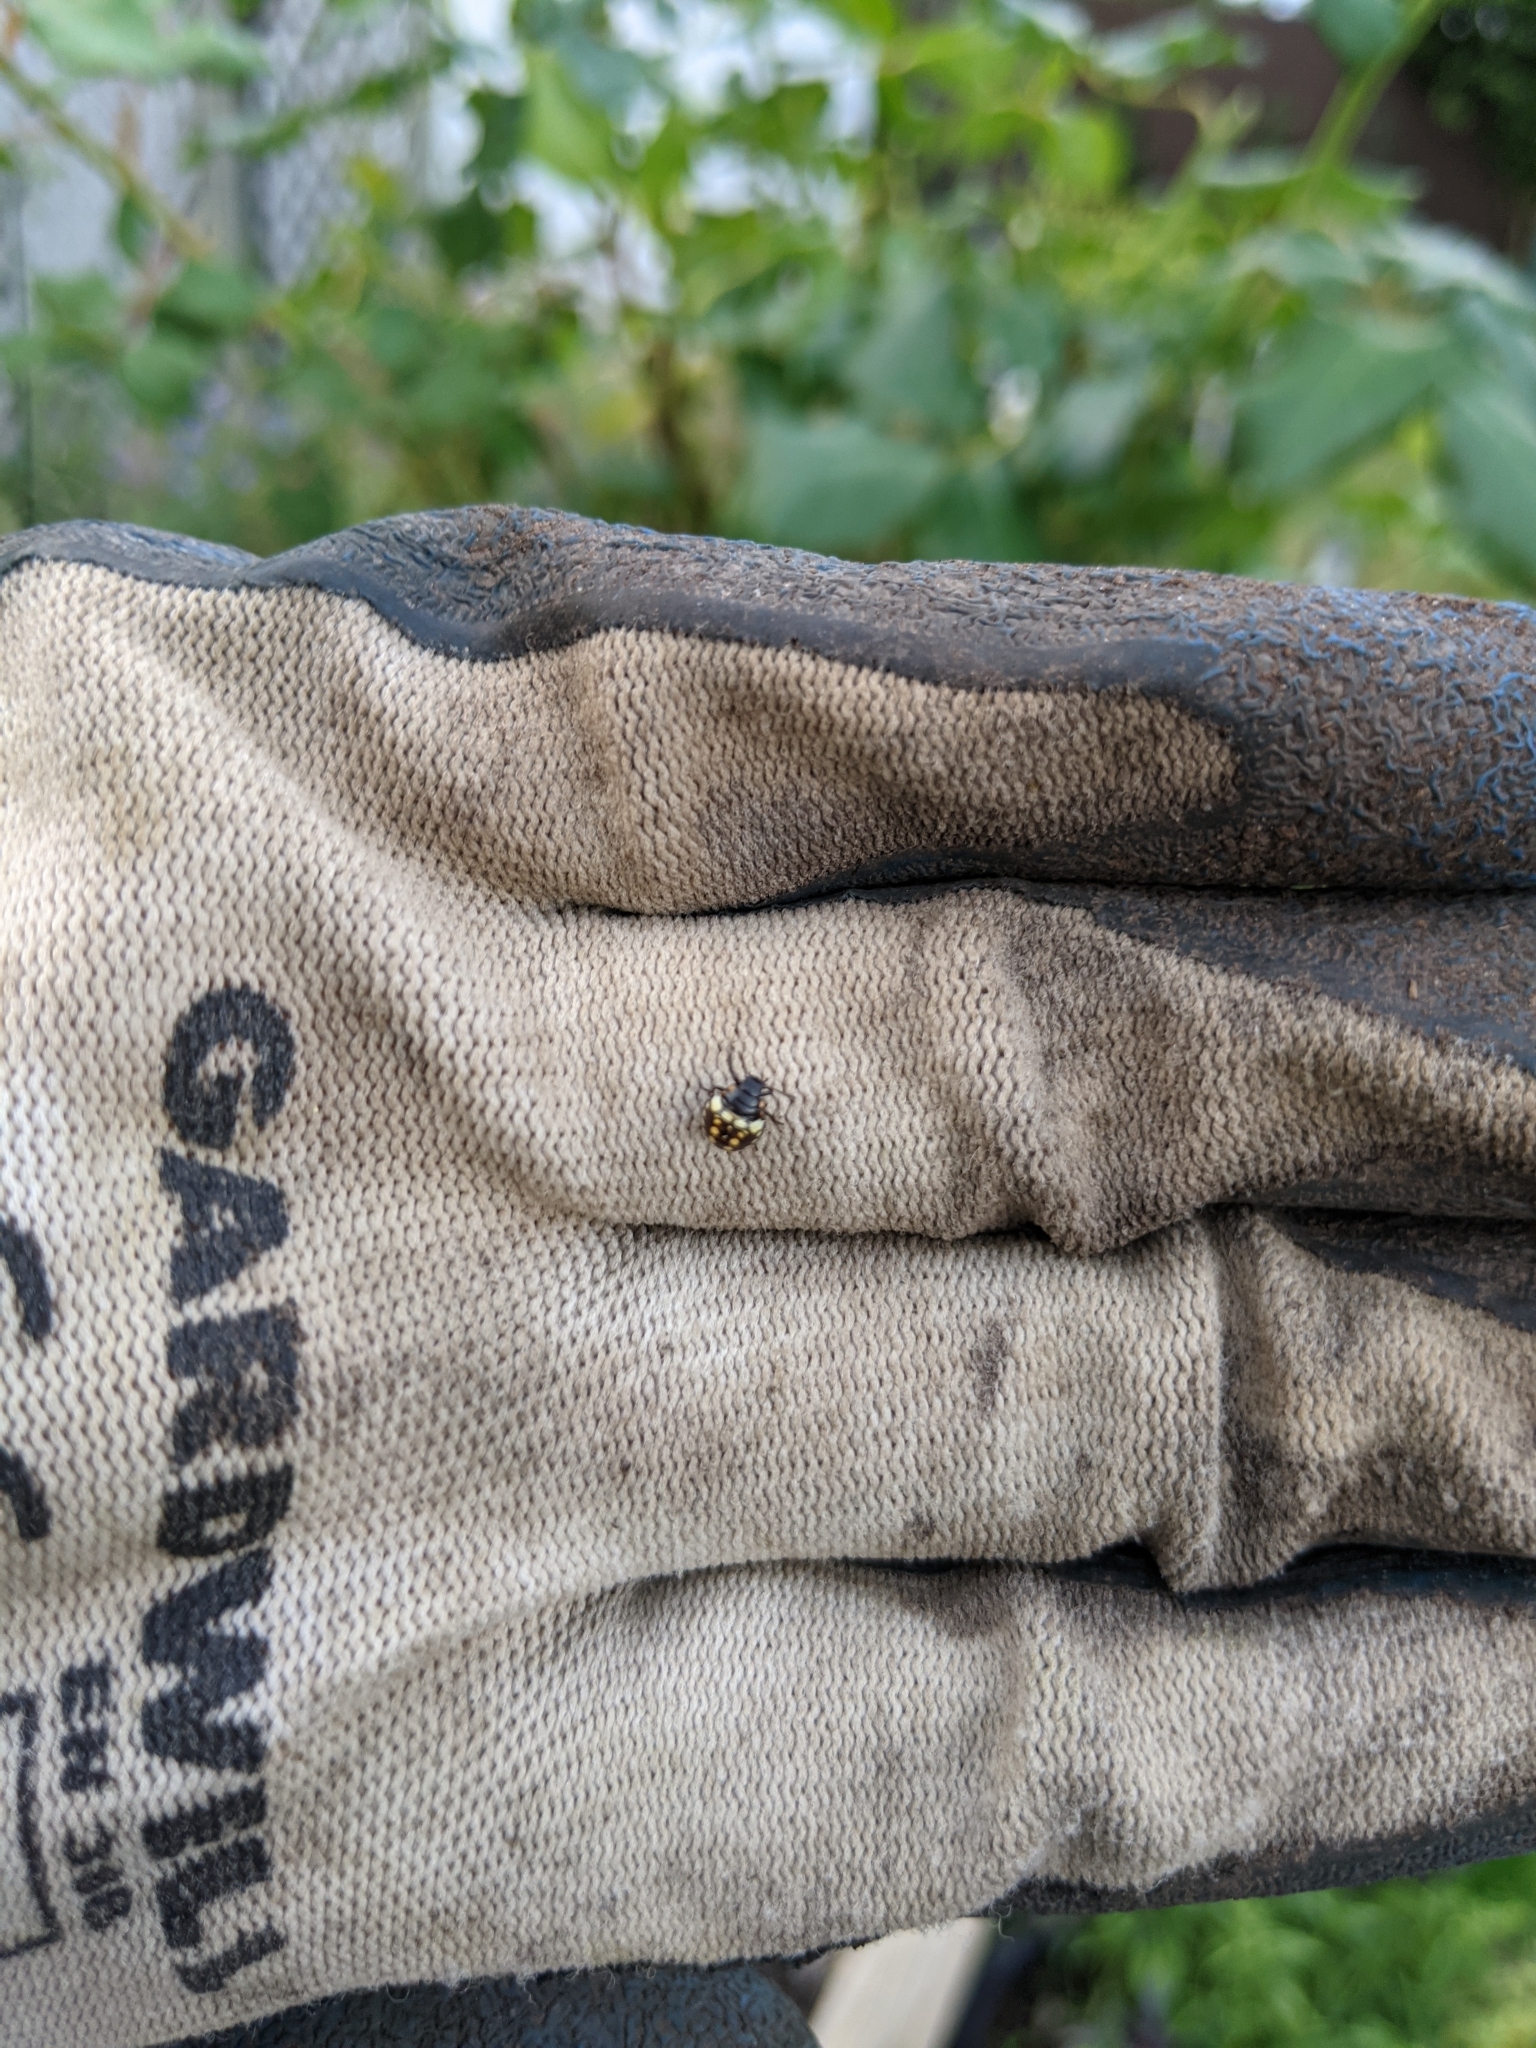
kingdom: Animalia
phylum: Arthropoda
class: Insecta
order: Hemiptera
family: Pentatomidae
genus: Nezara
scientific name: Nezara viridula
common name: Southern green stink bug
